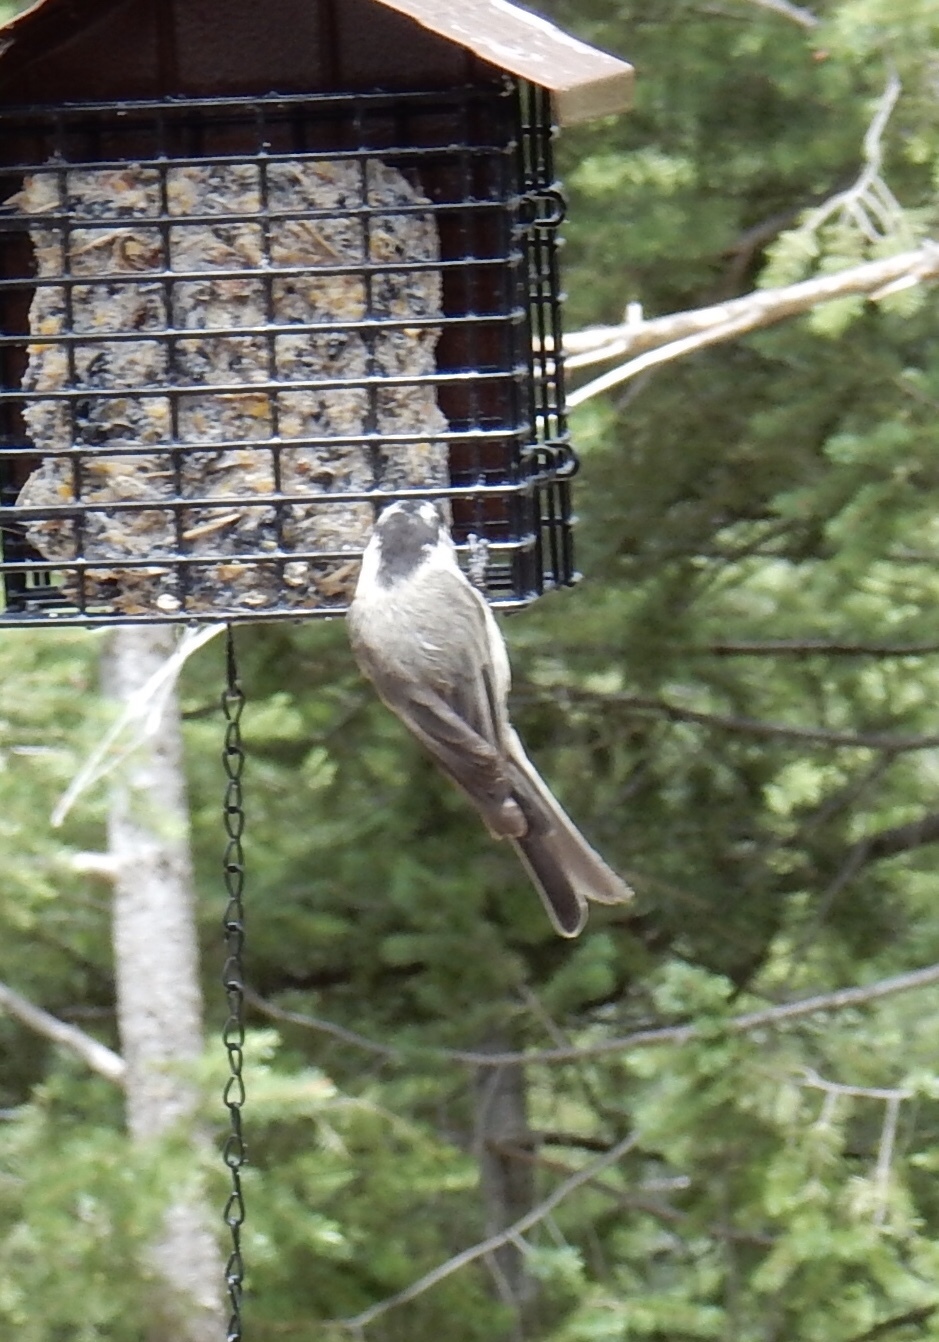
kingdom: Animalia
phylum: Chordata
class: Aves
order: Passeriformes
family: Paridae
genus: Poecile
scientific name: Poecile gambeli
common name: Mountain chickadee
